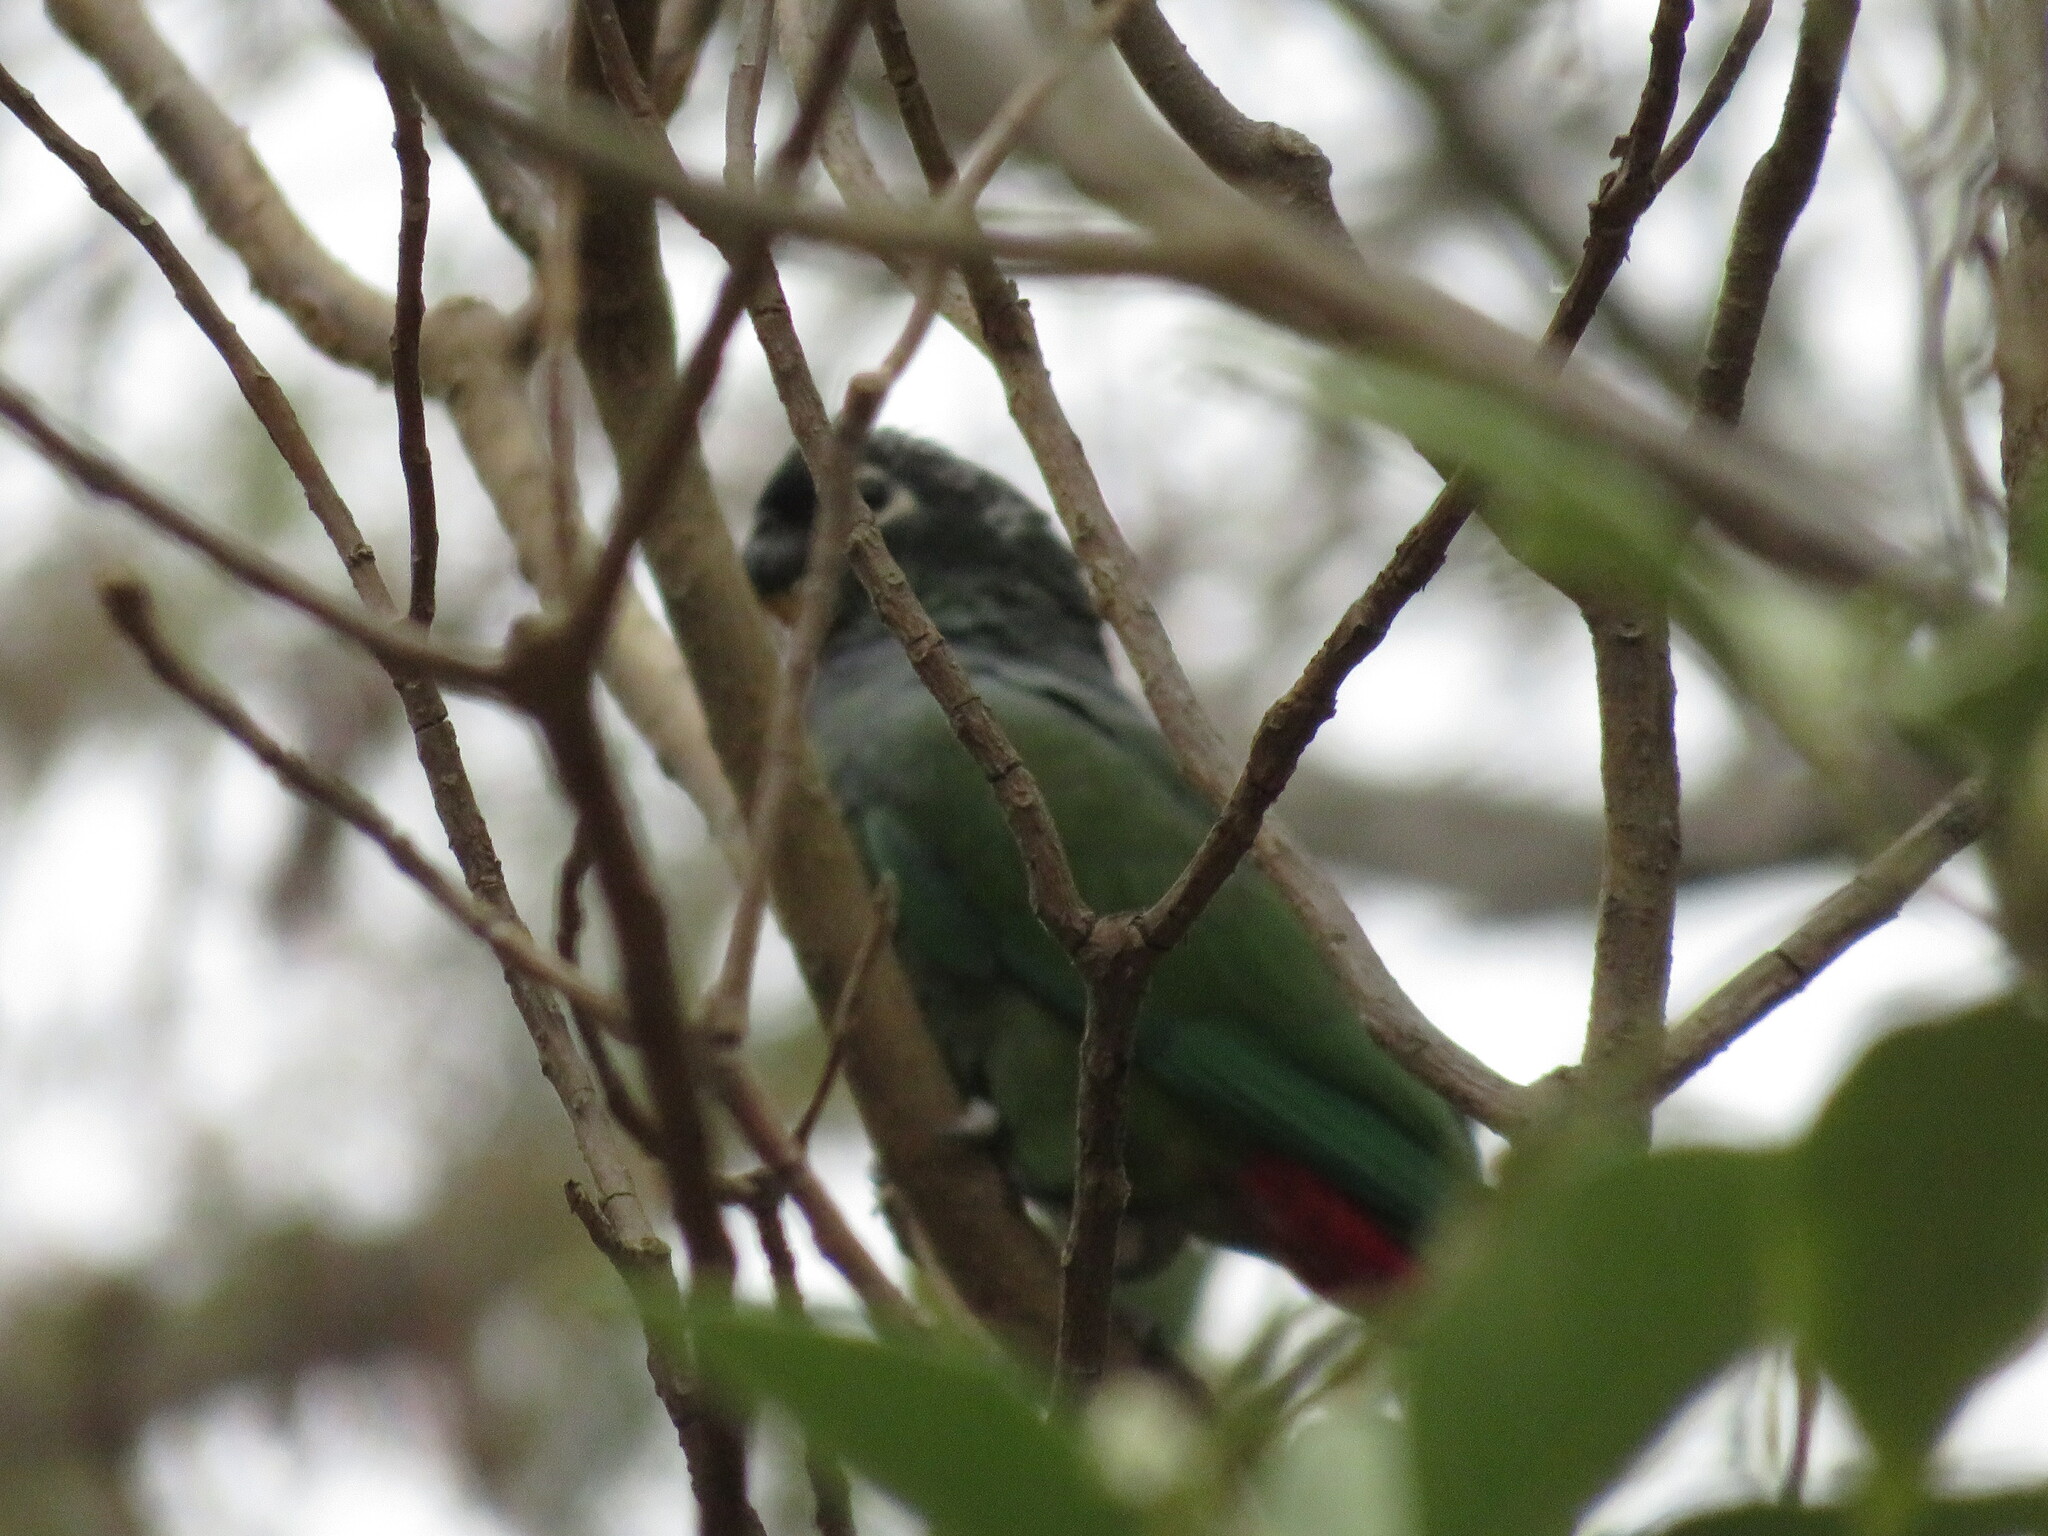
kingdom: Animalia
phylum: Chordata
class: Aves
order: Psittaciformes
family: Psittacidae
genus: Pionus
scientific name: Pionus maximiliani
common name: Scaly-headed parrot
